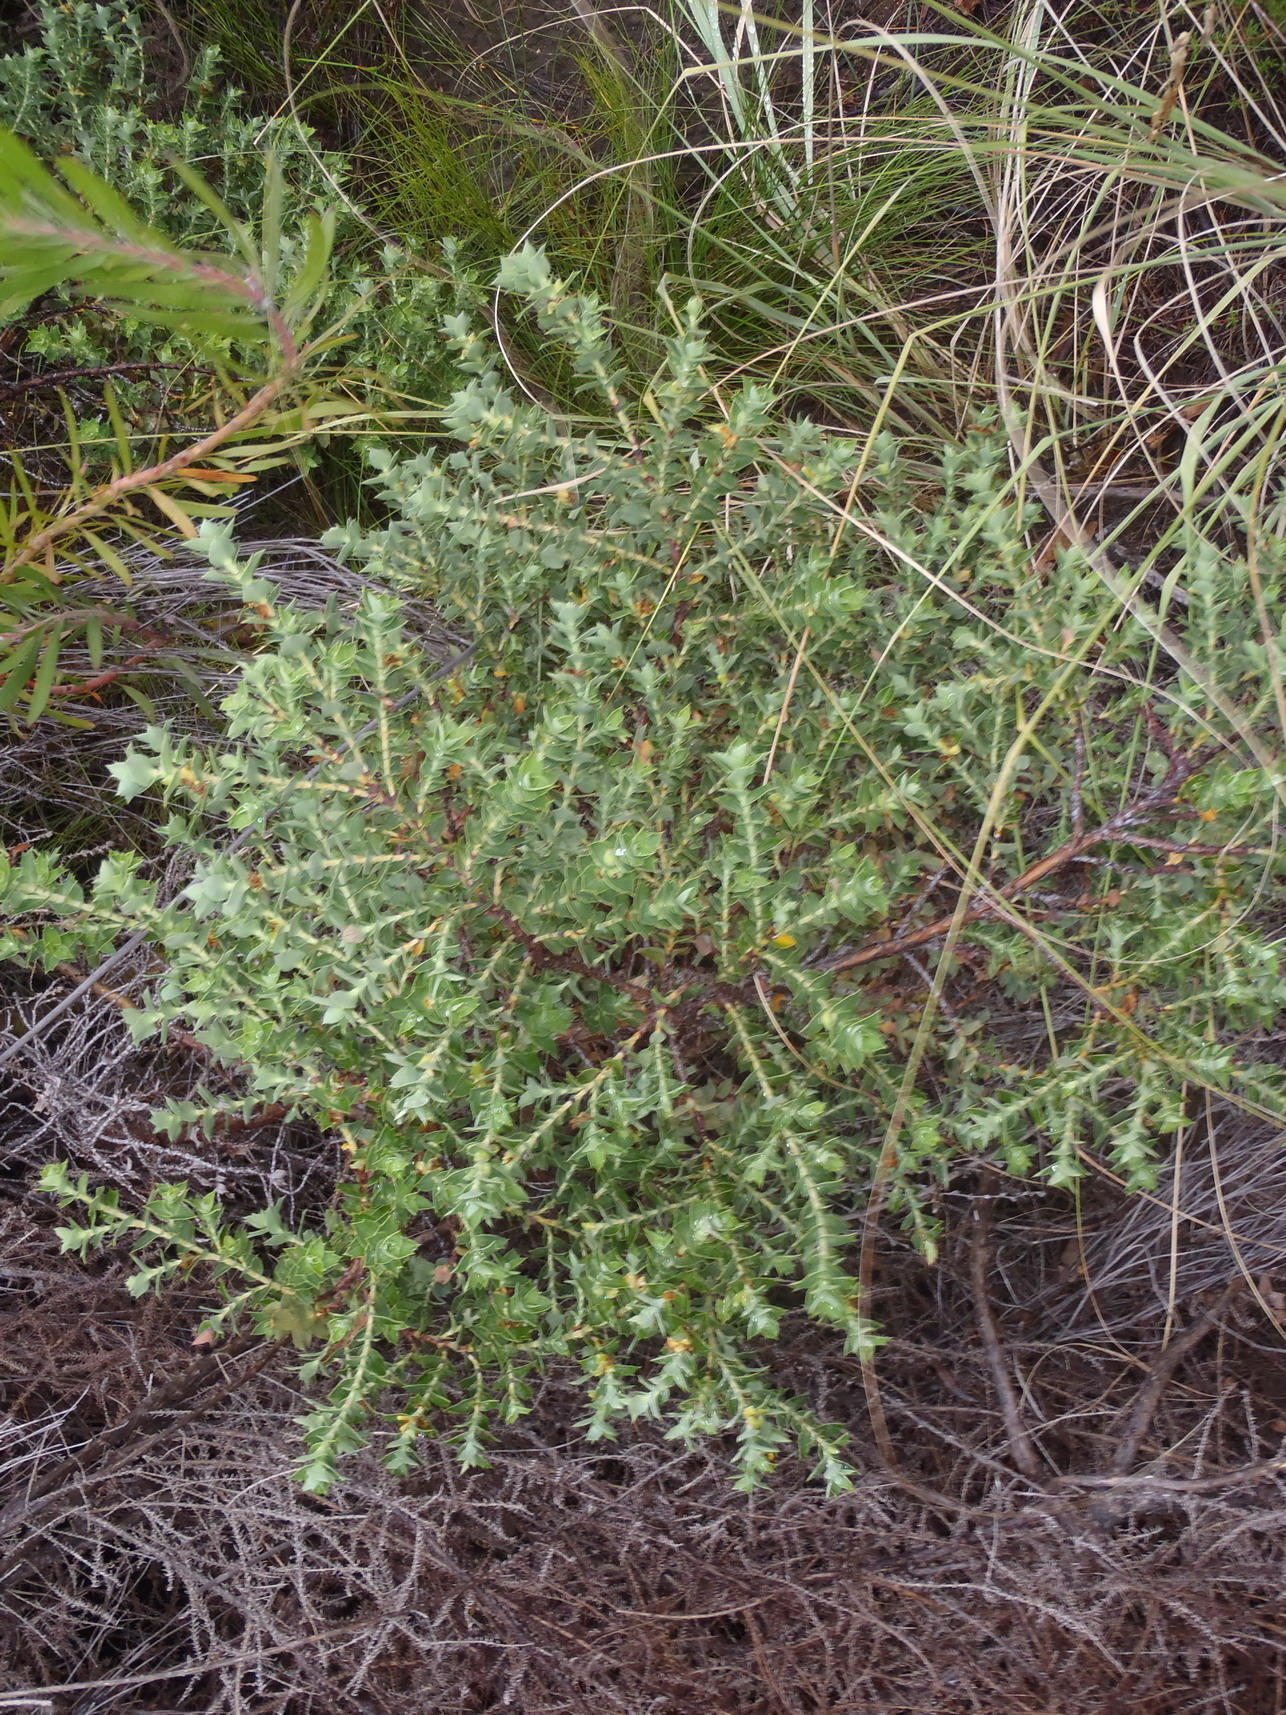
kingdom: Plantae
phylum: Tracheophyta
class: Magnoliopsida
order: Rosales
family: Rosaceae
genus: Cliffortia
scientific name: Cliffortia ilicifolia
